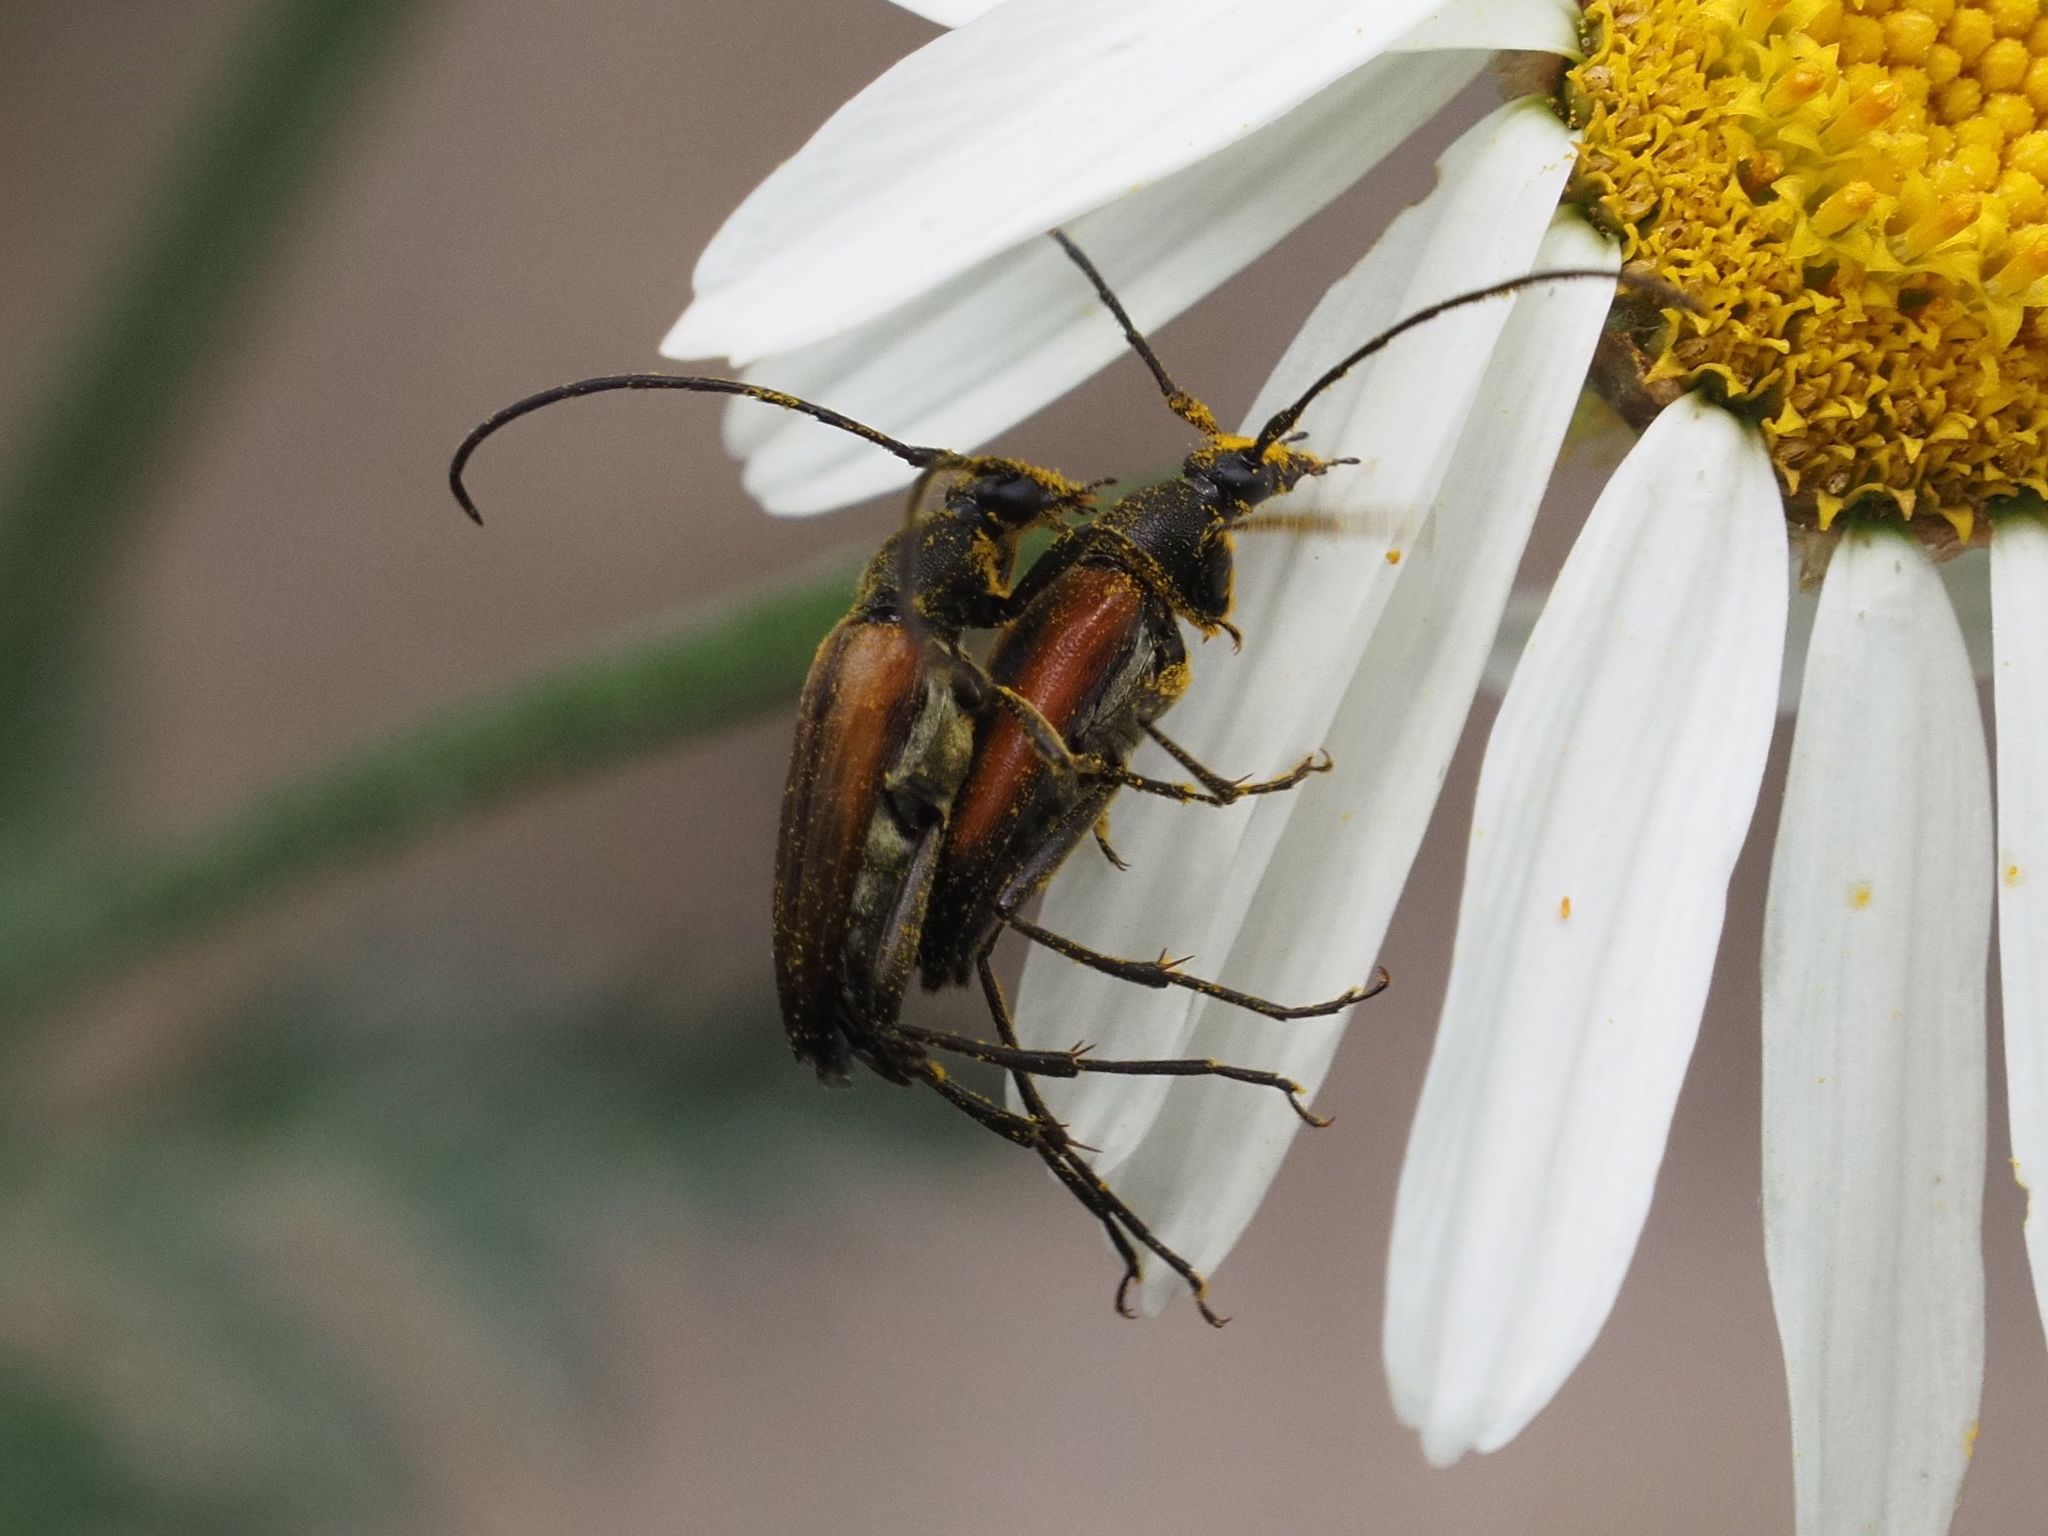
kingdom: Animalia
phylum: Arthropoda
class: Insecta
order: Coleoptera
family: Cerambycidae
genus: Stenurella
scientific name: Stenurella melanura
